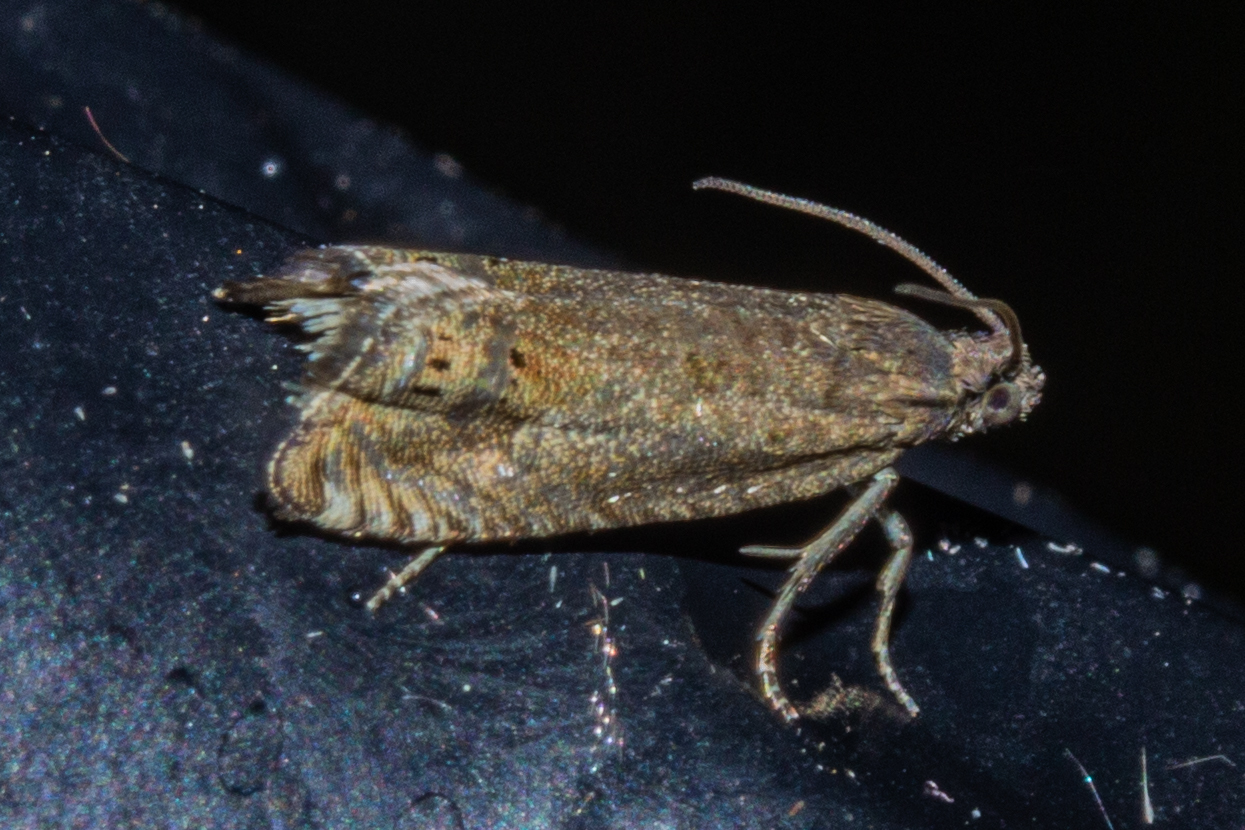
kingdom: Animalia
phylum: Arthropoda
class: Insecta
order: Lepidoptera
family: Tortricidae
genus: Cydia
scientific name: Cydia succedana
